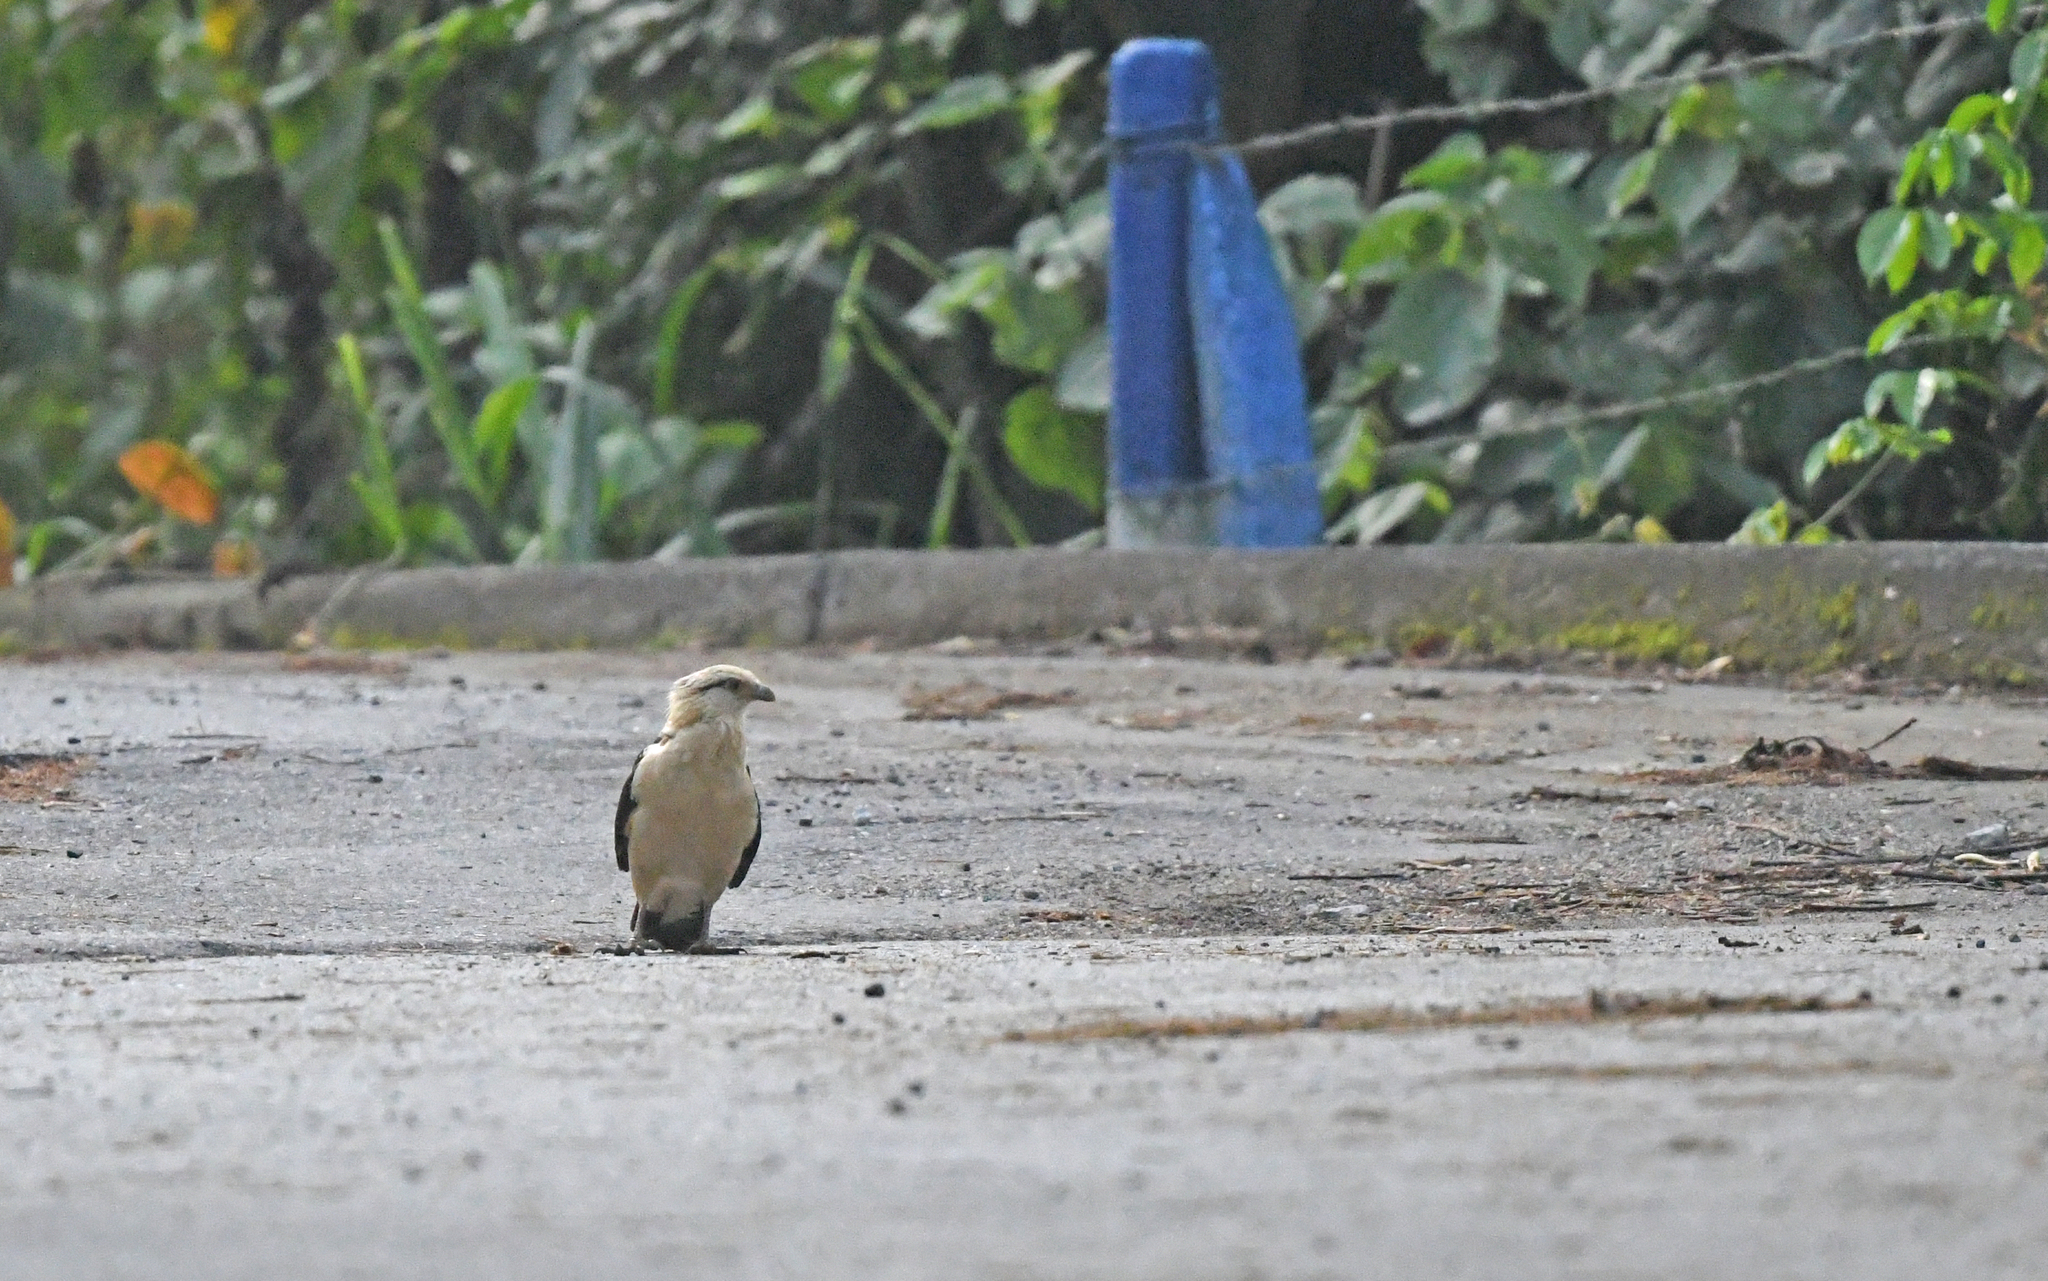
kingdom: Animalia
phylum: Chordata
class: Aves
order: Falconiformes
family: Falconidae
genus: Daptrius
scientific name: Daptrius
